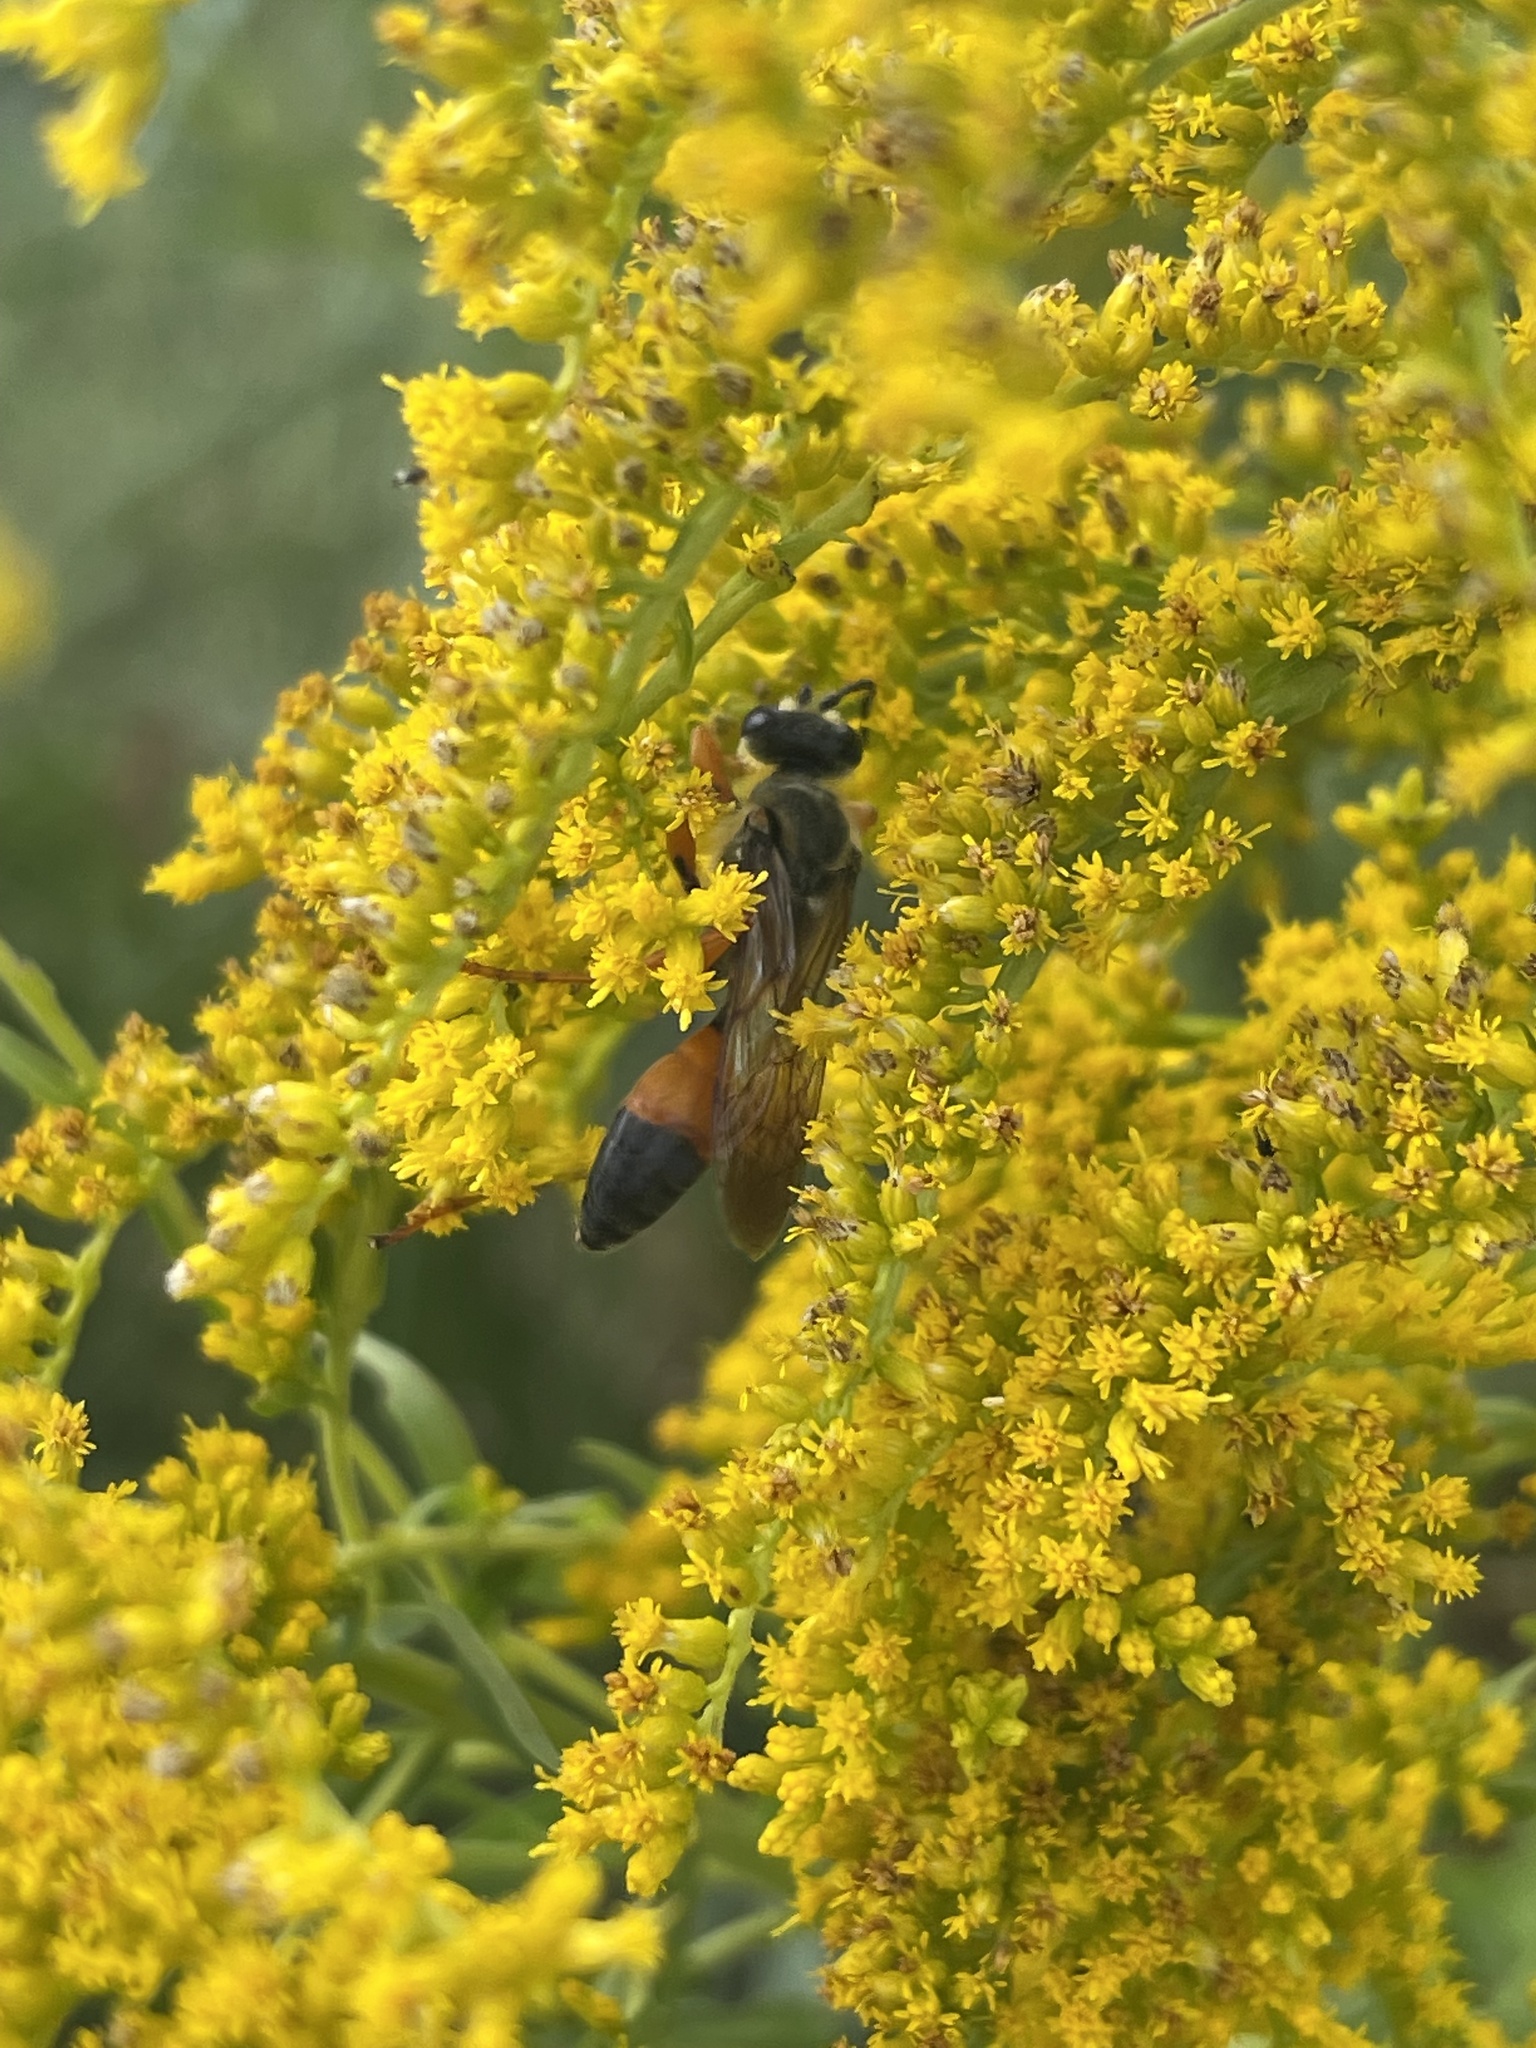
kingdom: Animalia
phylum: Arthropoda
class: Insecta
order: Hymenoptera
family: Sphecidae
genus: Sphex
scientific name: Sphex ichneumoneus
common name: Great golden digger wasp
